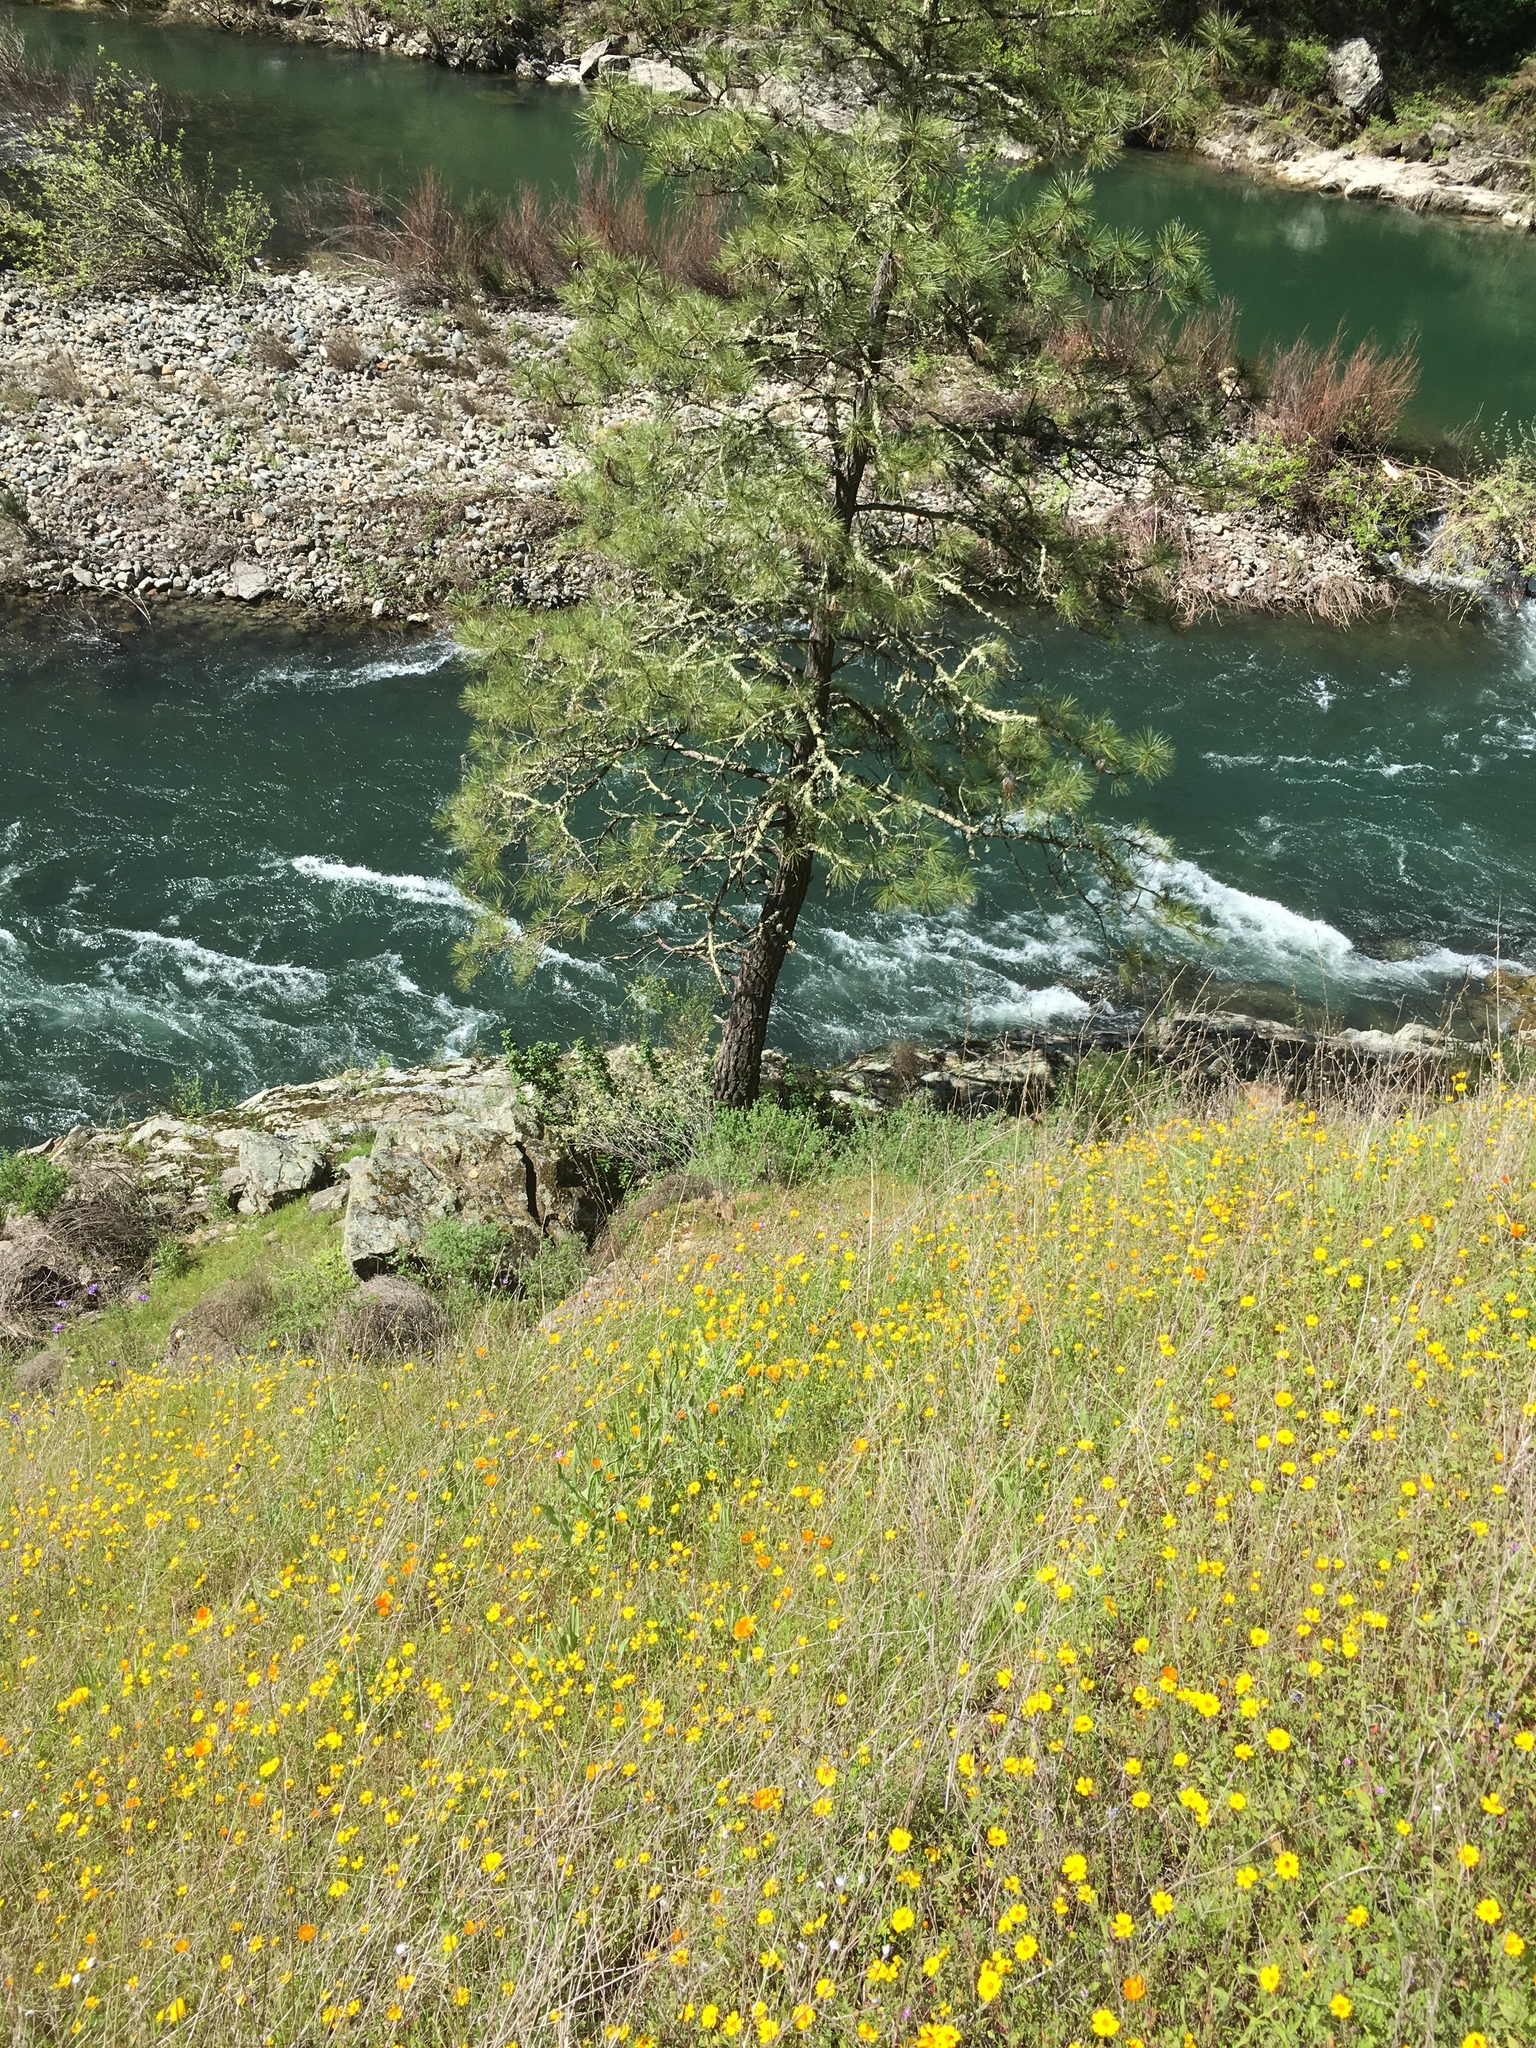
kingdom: Animalia
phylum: Chordata
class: Mammalia
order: Rodentia
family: Sciuridae
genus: Otospermophilus
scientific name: Otospermophilus beecheyi
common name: California ground squirrel
